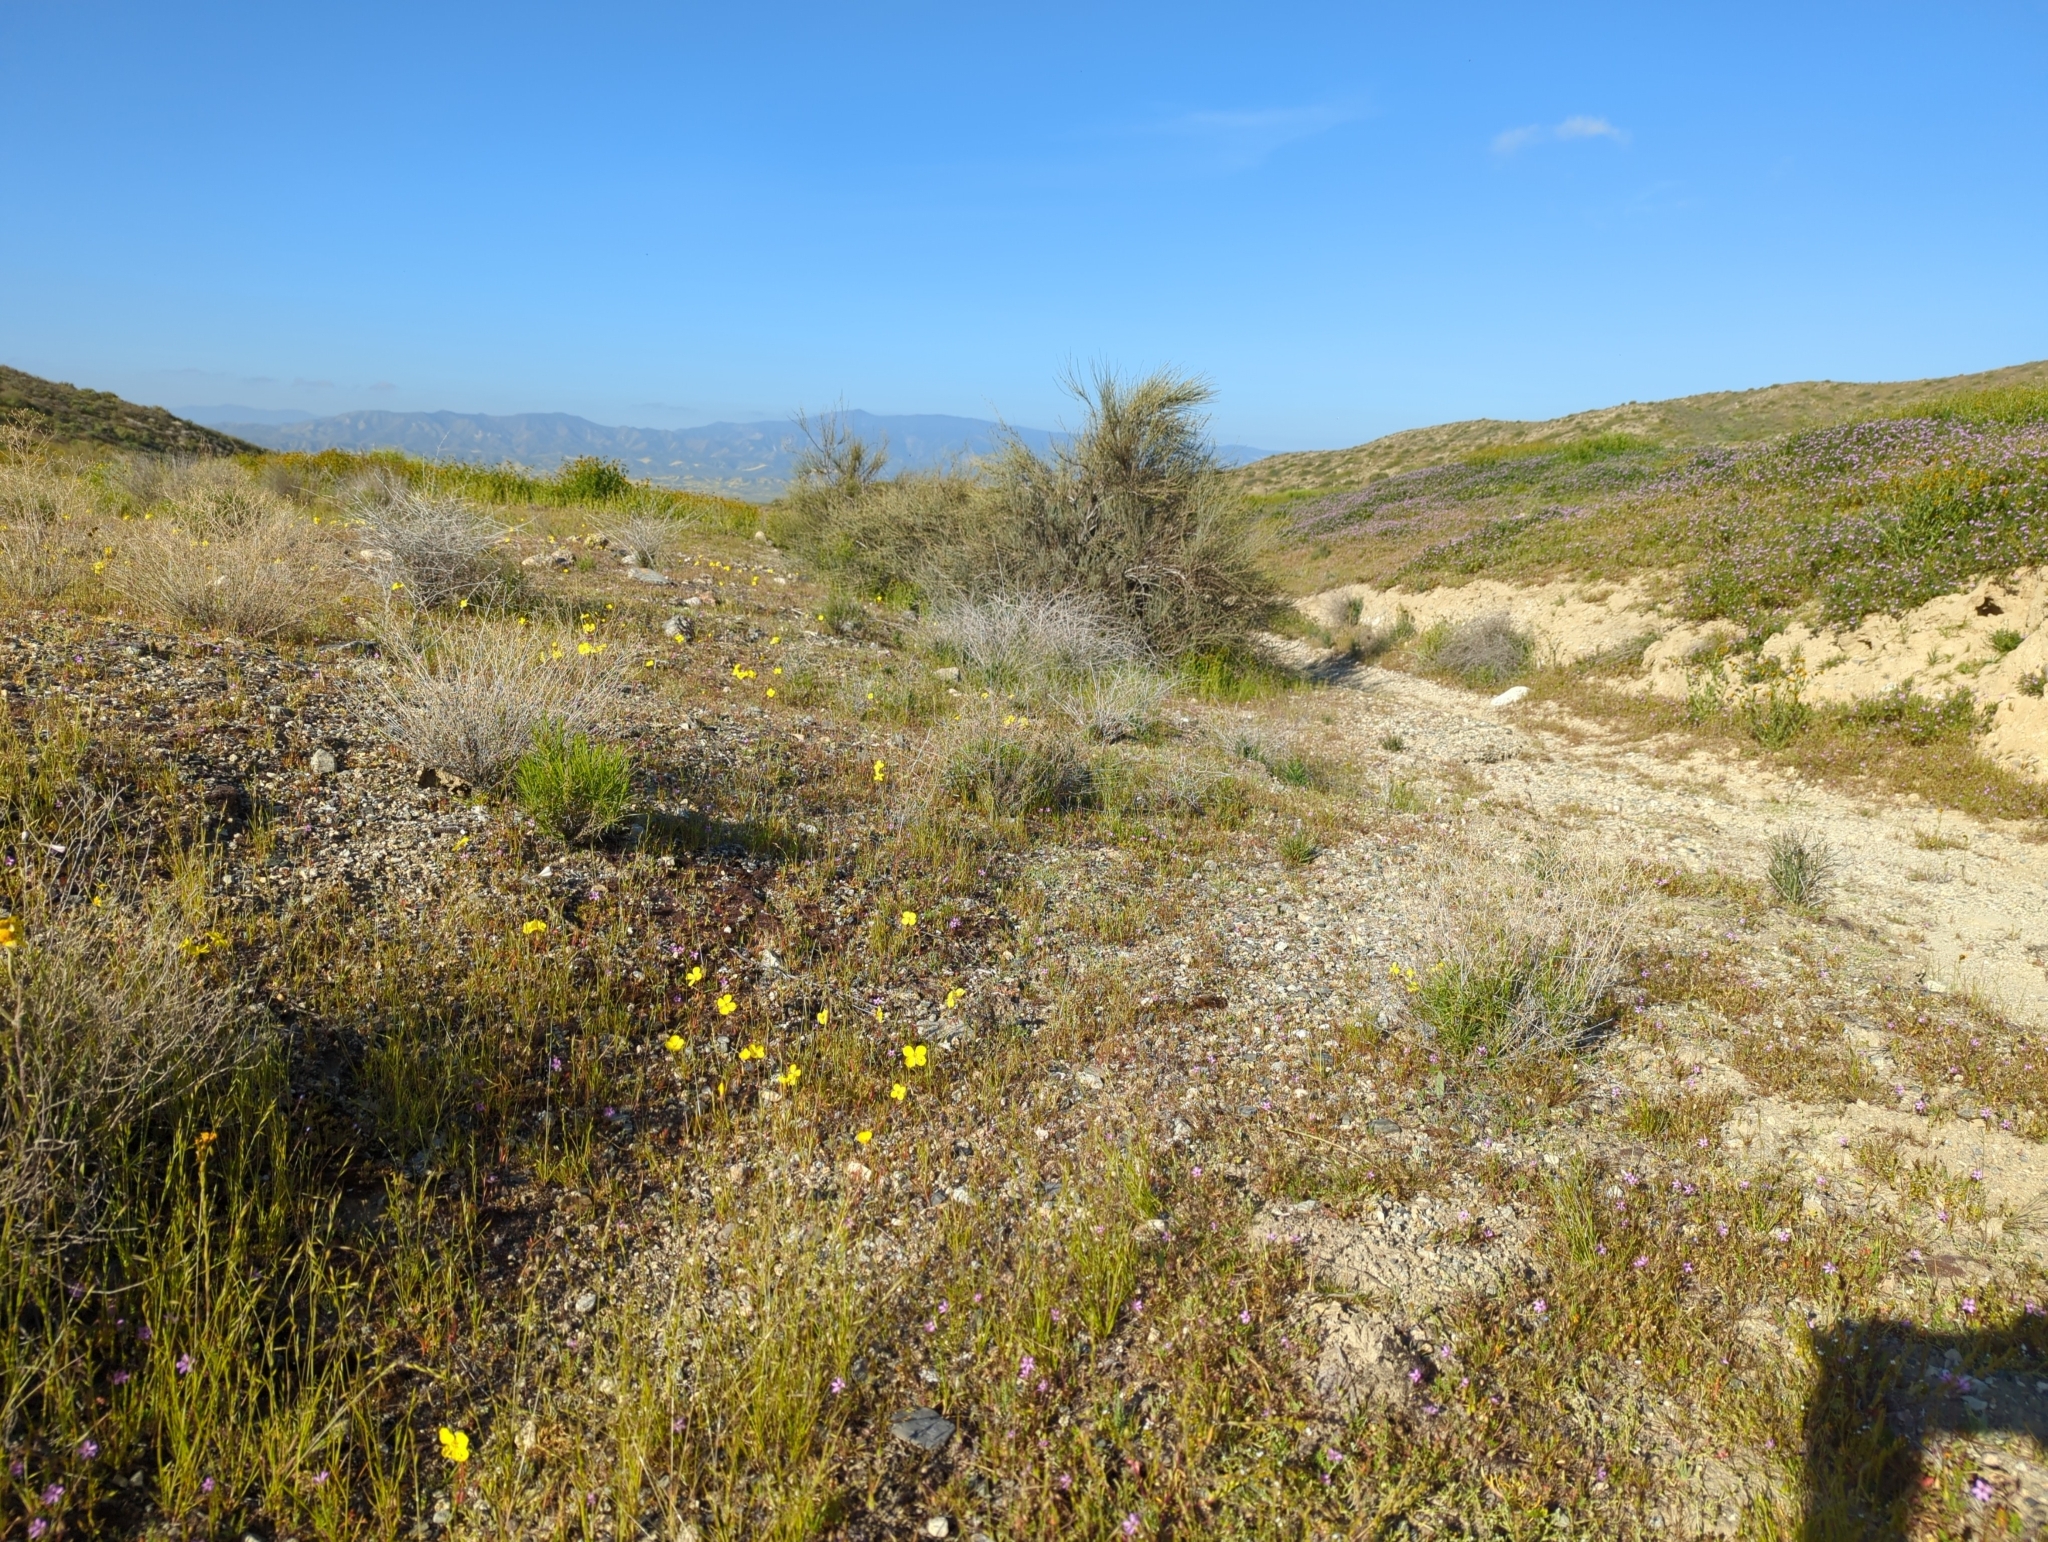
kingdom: Plantae
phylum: Tracheophyta
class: Magnoliopsida
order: Myrtales
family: Onagraceae
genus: Camissonia
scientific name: Camissonia campestris
